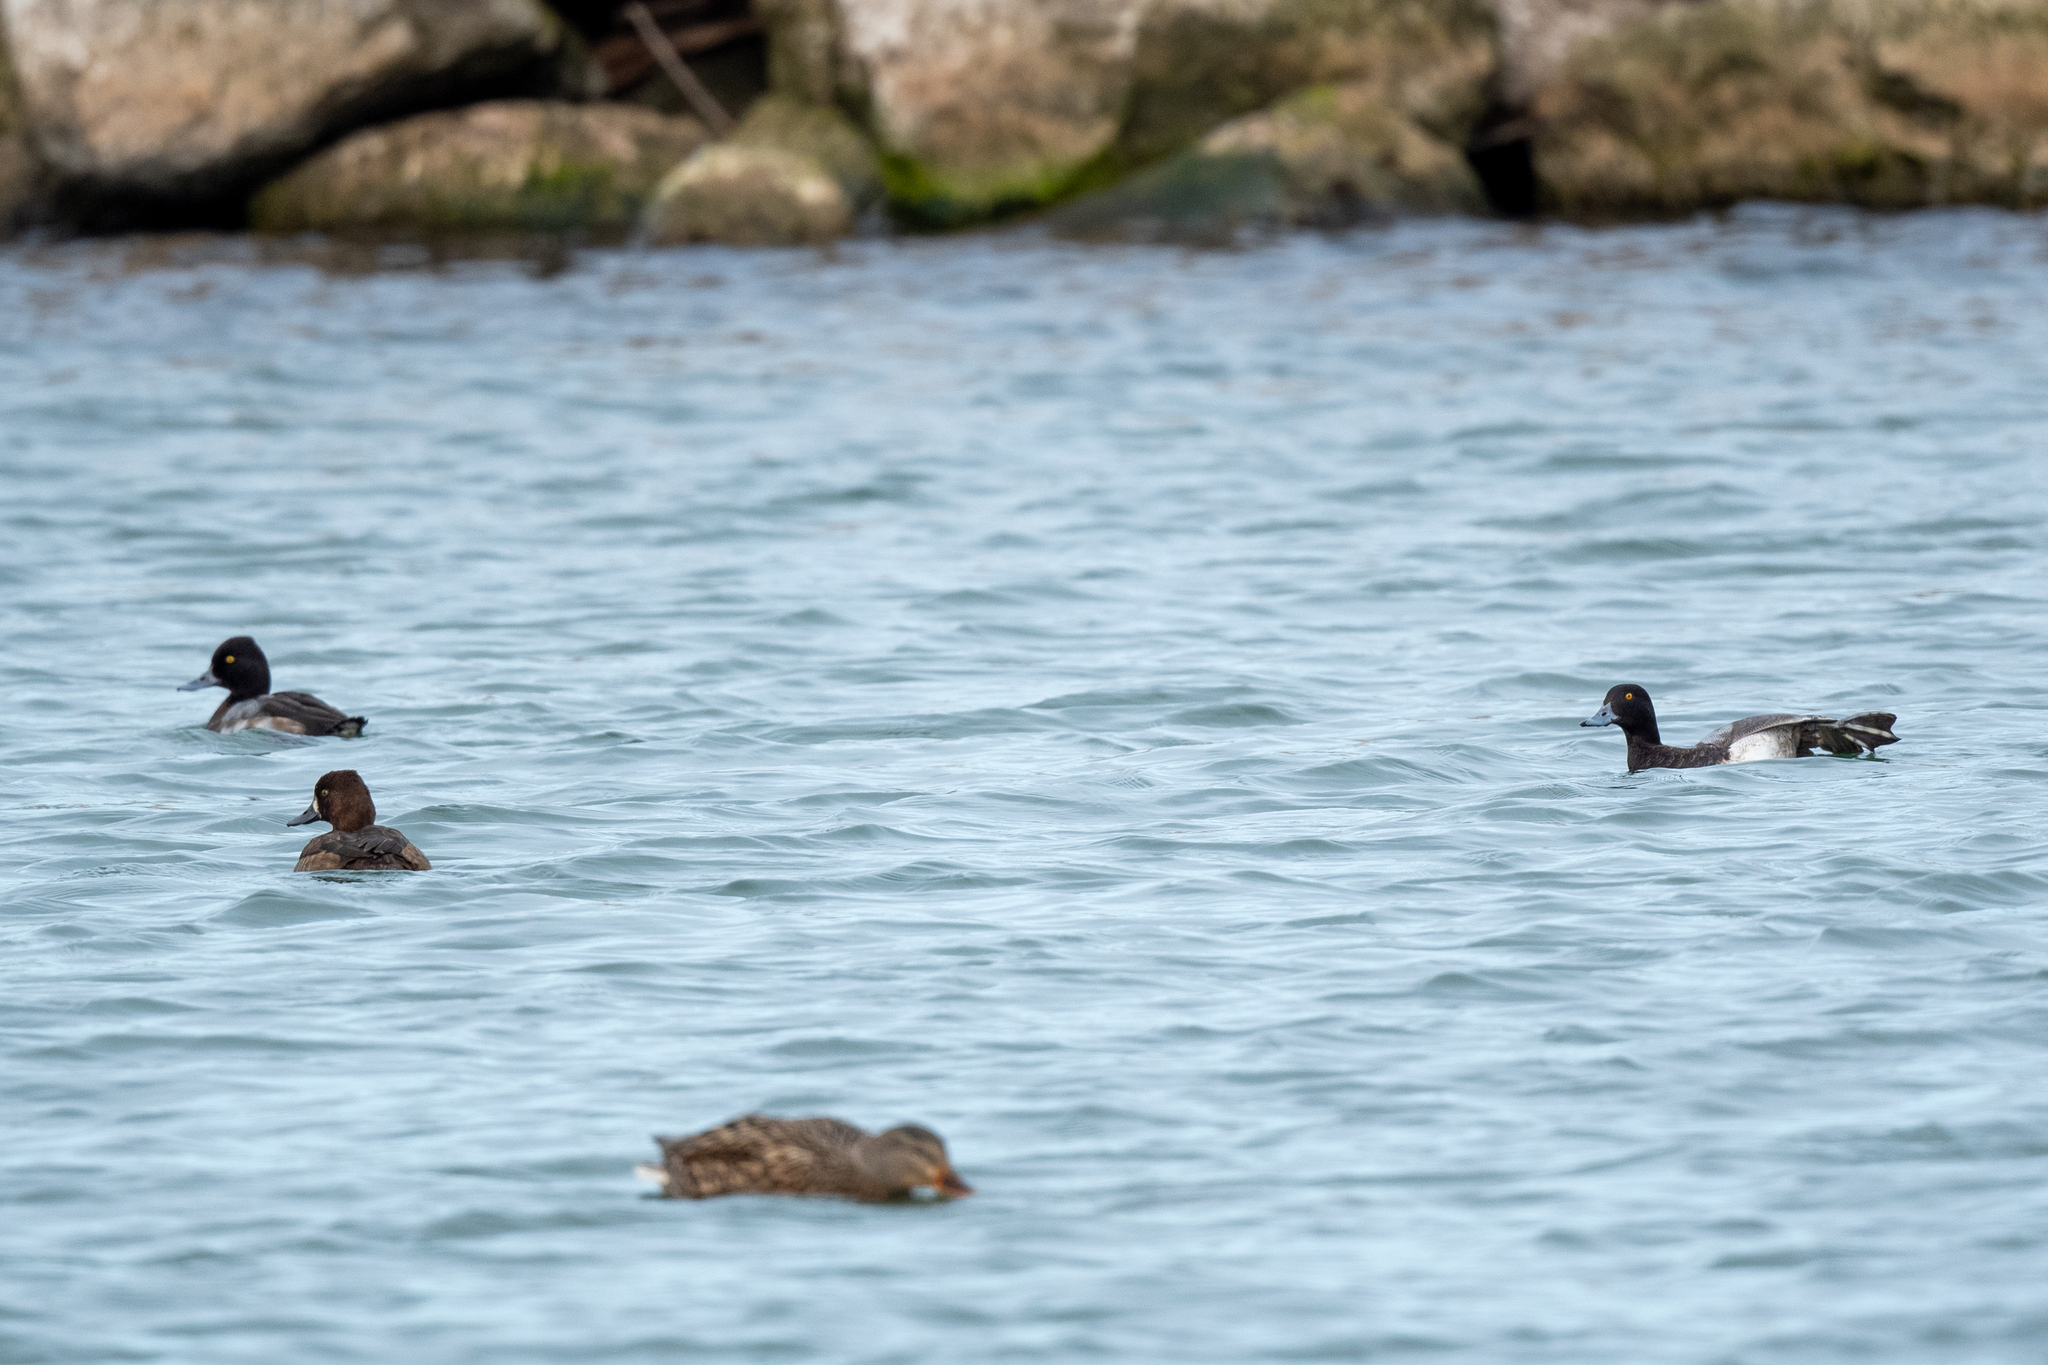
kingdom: Animalia
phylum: Chordata
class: Aves
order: Anseriformes
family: Anatidae
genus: Aythya
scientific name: Aythya affinis
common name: Lesser scaup
